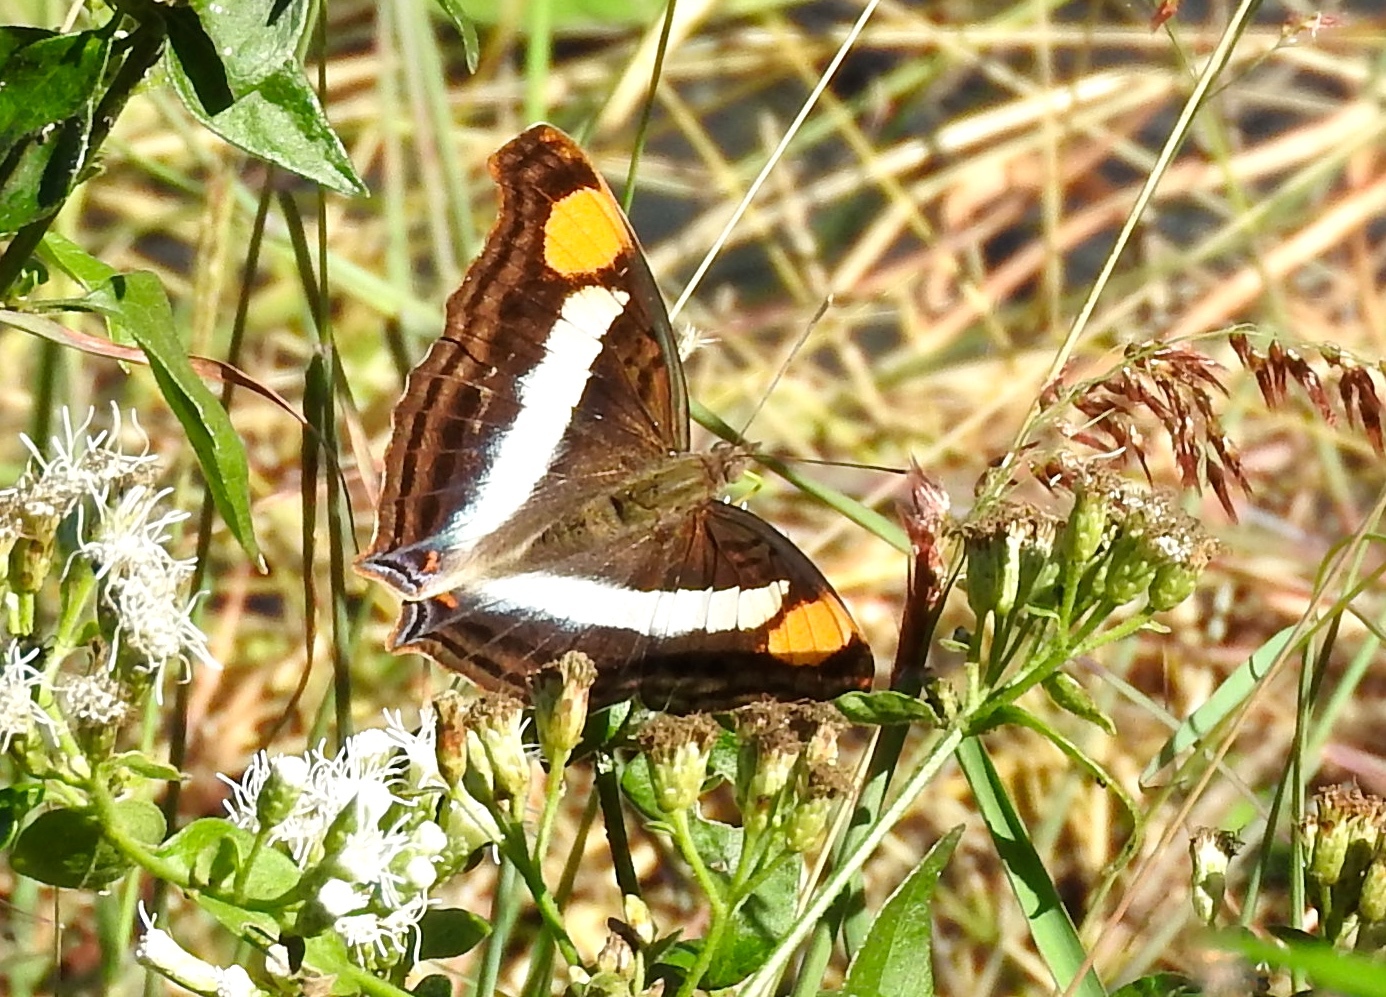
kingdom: Animalia
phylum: Arthropoda
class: Insecta
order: Lepidoptera
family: Nymphalidae
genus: Doxocopa
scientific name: Doxocopa laure
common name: Silver emperor
